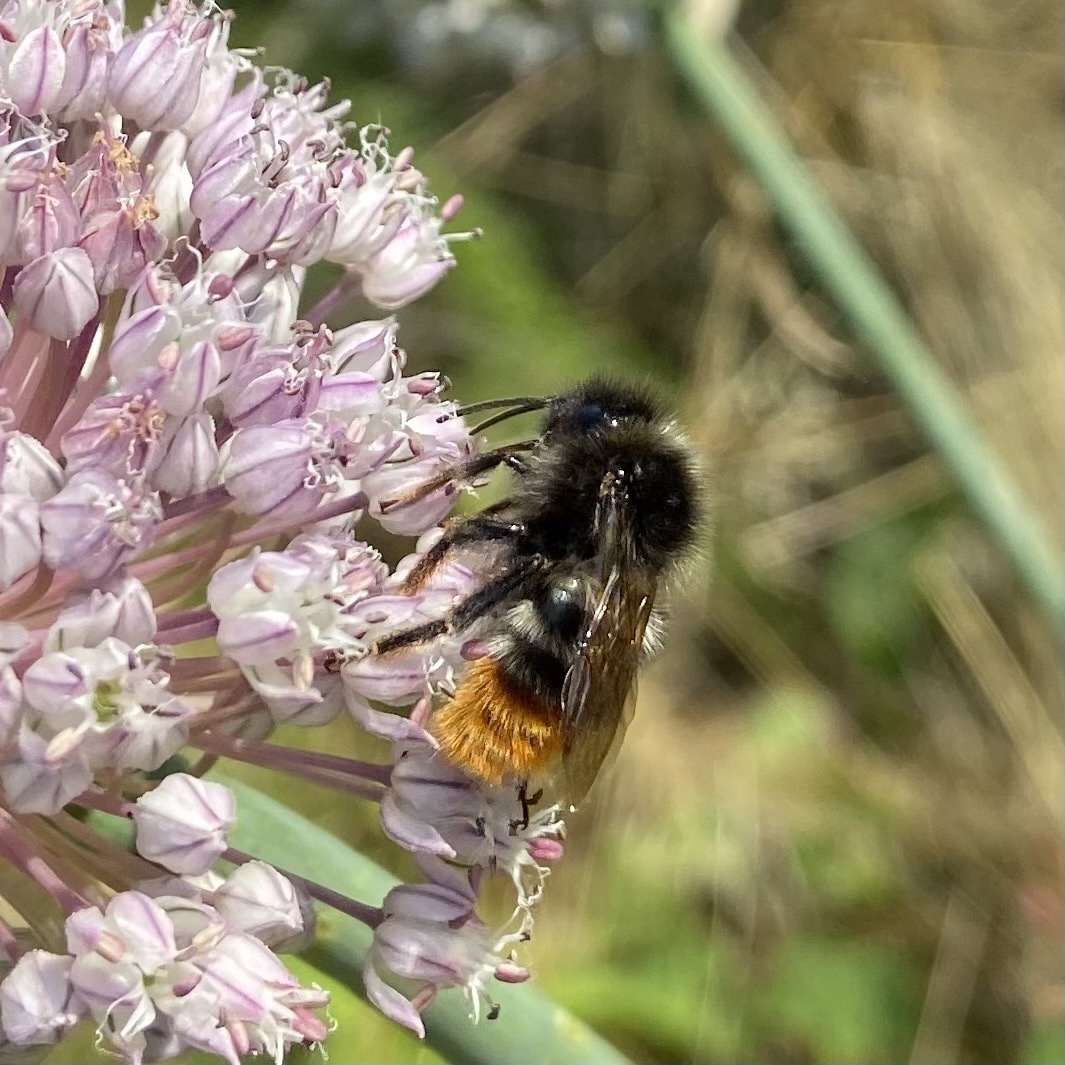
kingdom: Animalia
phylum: Arthropoda
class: Insecta
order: Hymenoptera
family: Apidae
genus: Bombus
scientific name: Bombus rupestris
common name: Hill cuckoo-bee
